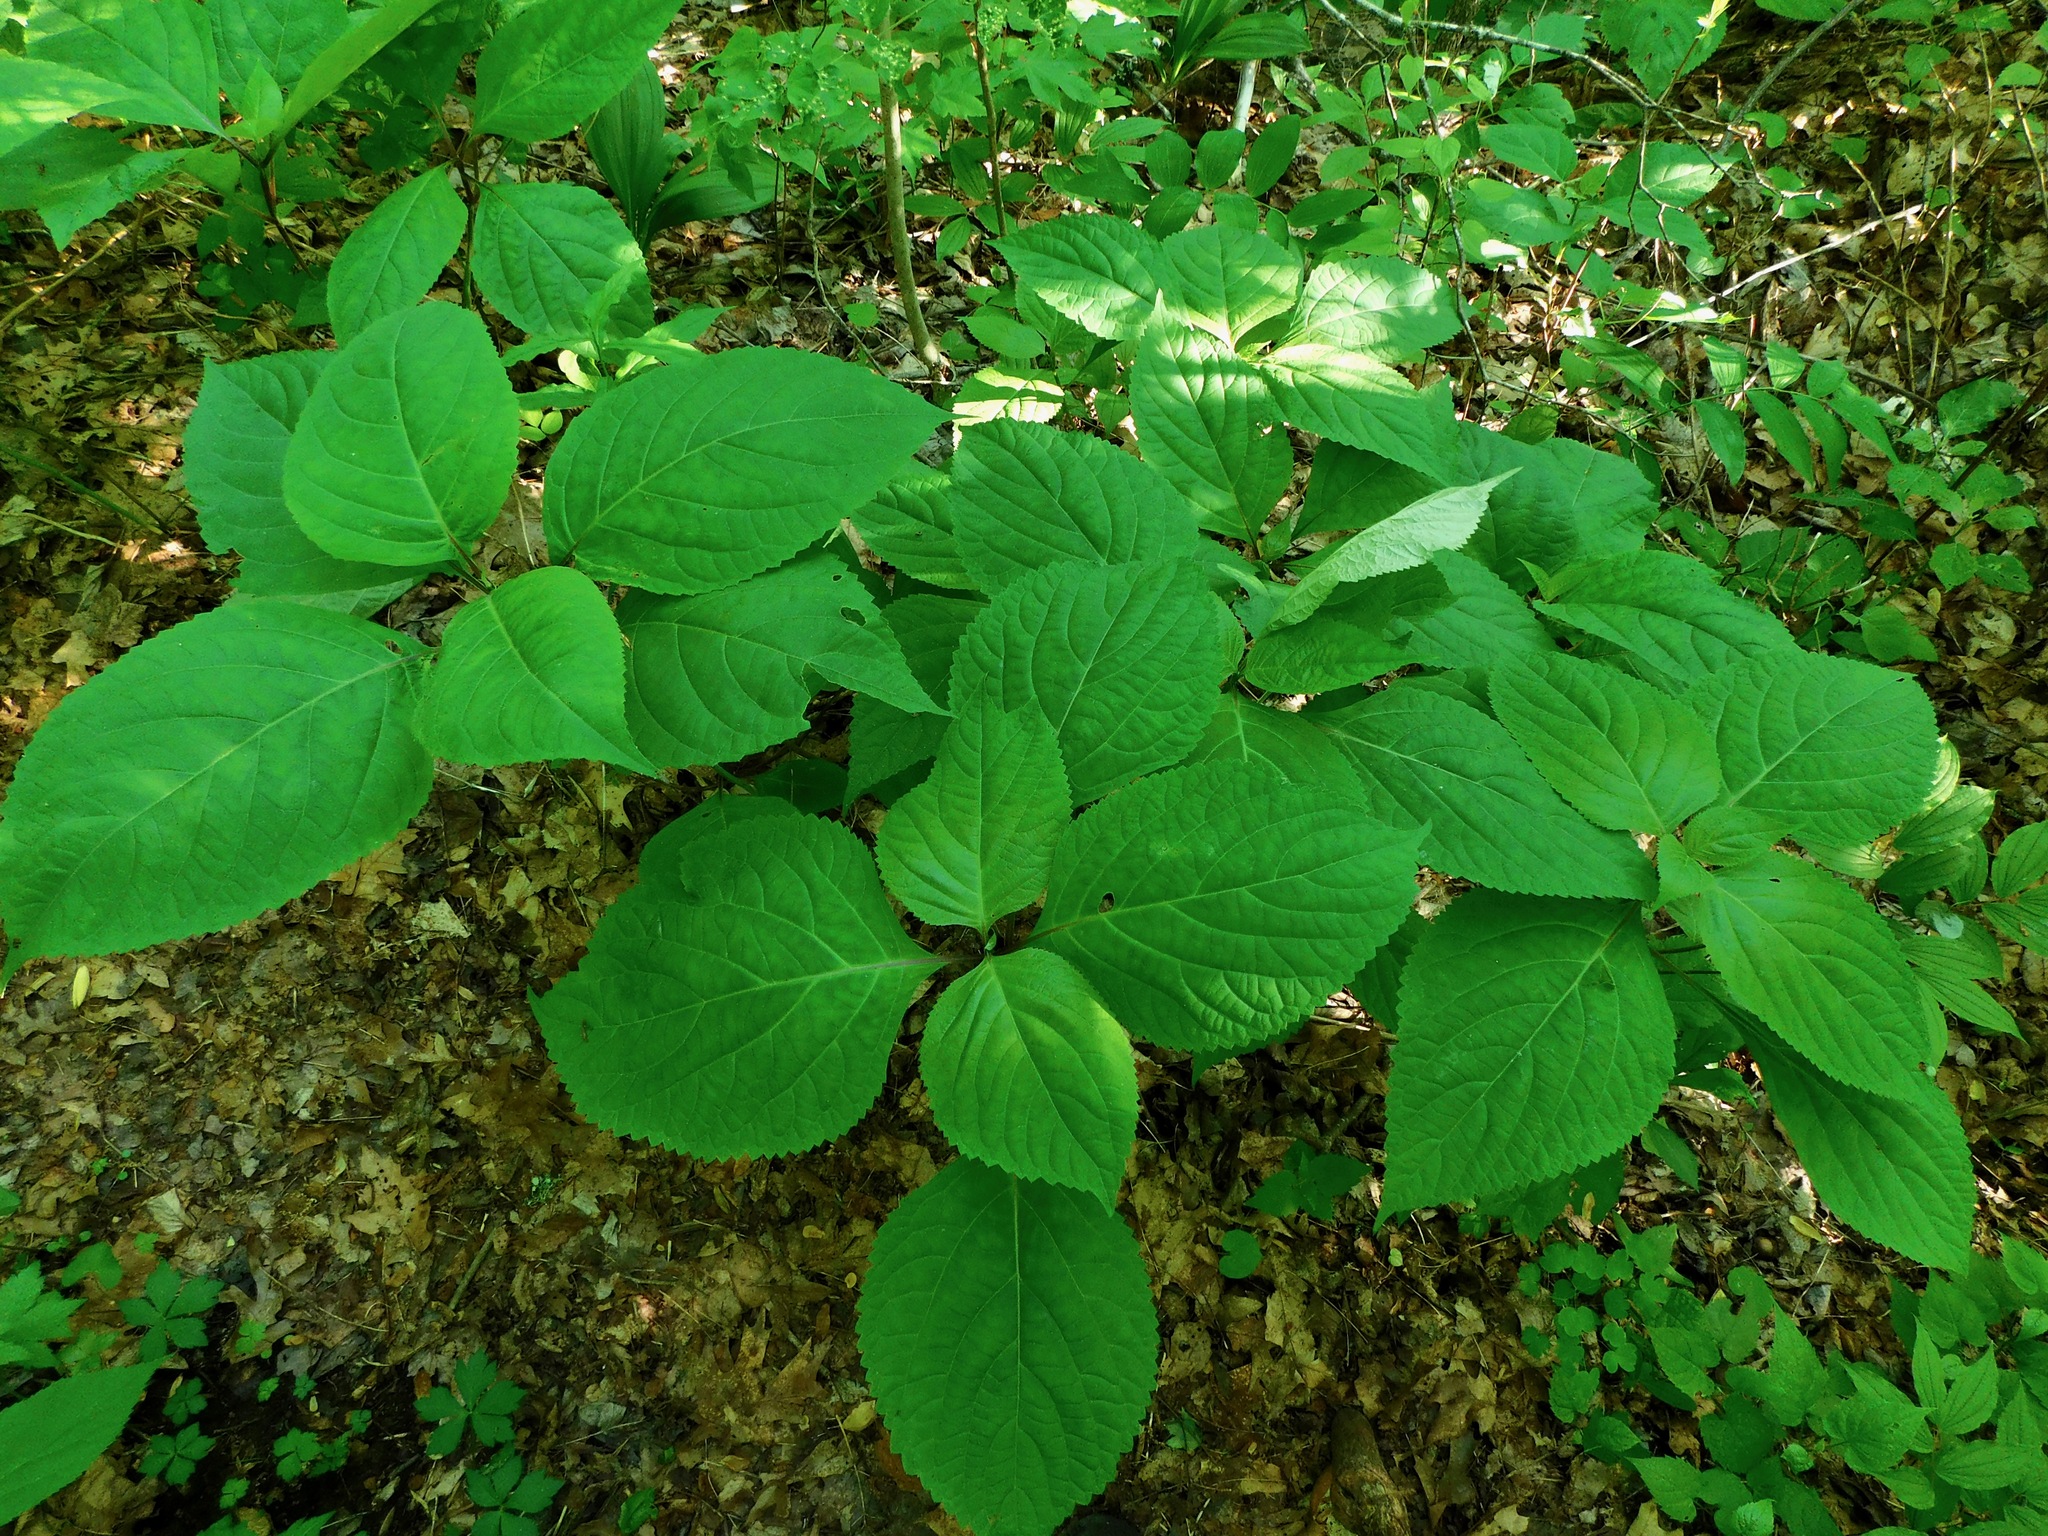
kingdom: Plantae
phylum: Tracheophyta
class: Magnoliopsida
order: Lamiales
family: Lamiaceae
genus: Collinsonia
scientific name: Collinsonia canadensis
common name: Northern horsebalm
